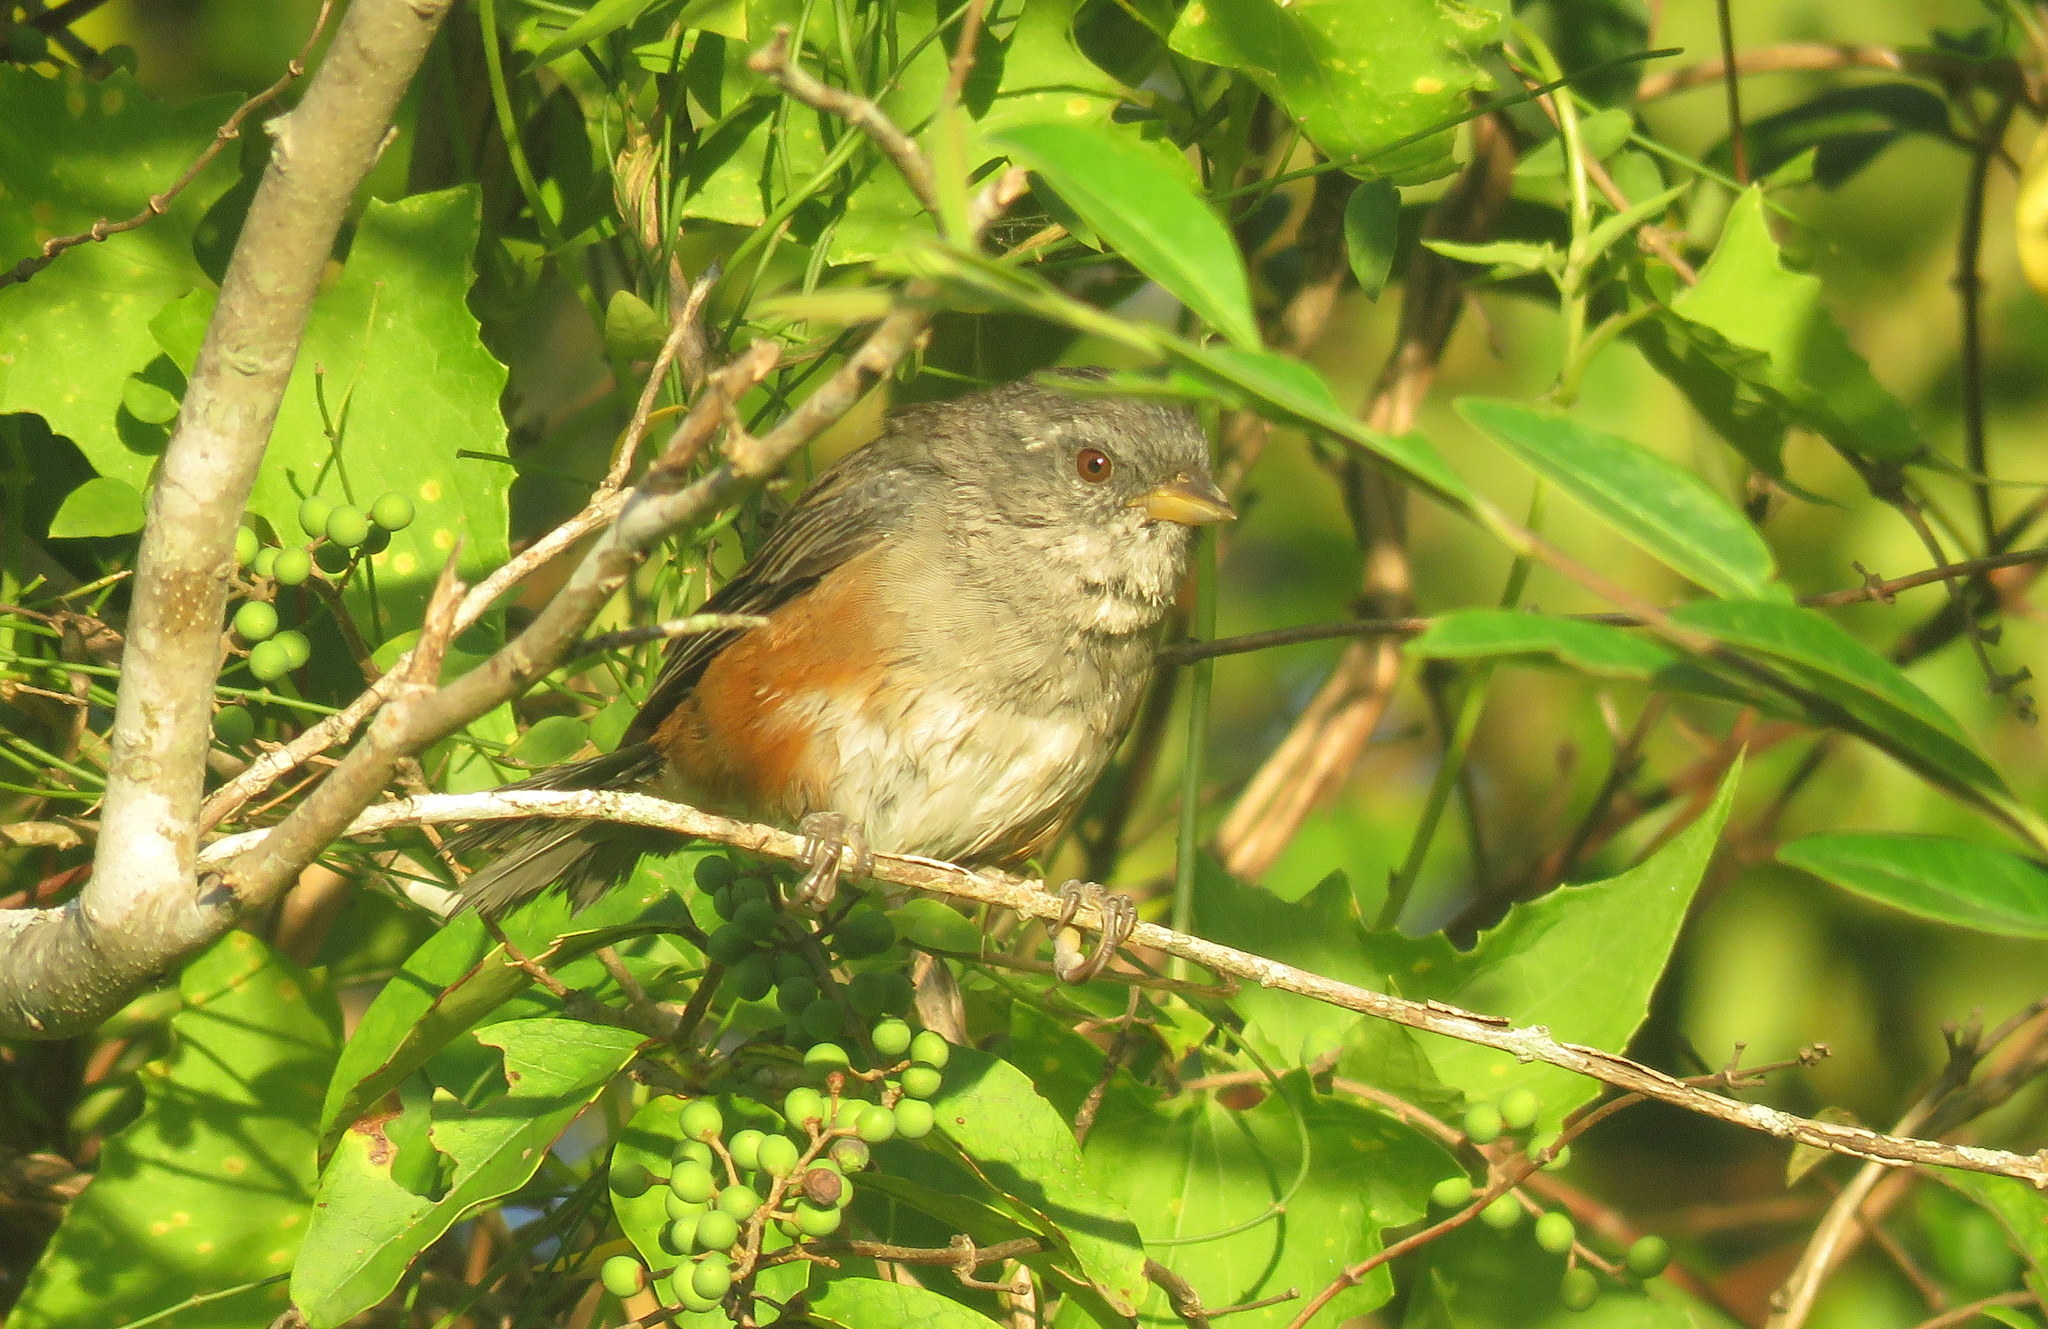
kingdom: Animalia
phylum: Chordata
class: Aves
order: Passeriformes
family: Thraupidae
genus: Microspingus
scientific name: Microspingus cabanisi
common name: Gray-throated warbling-finch
